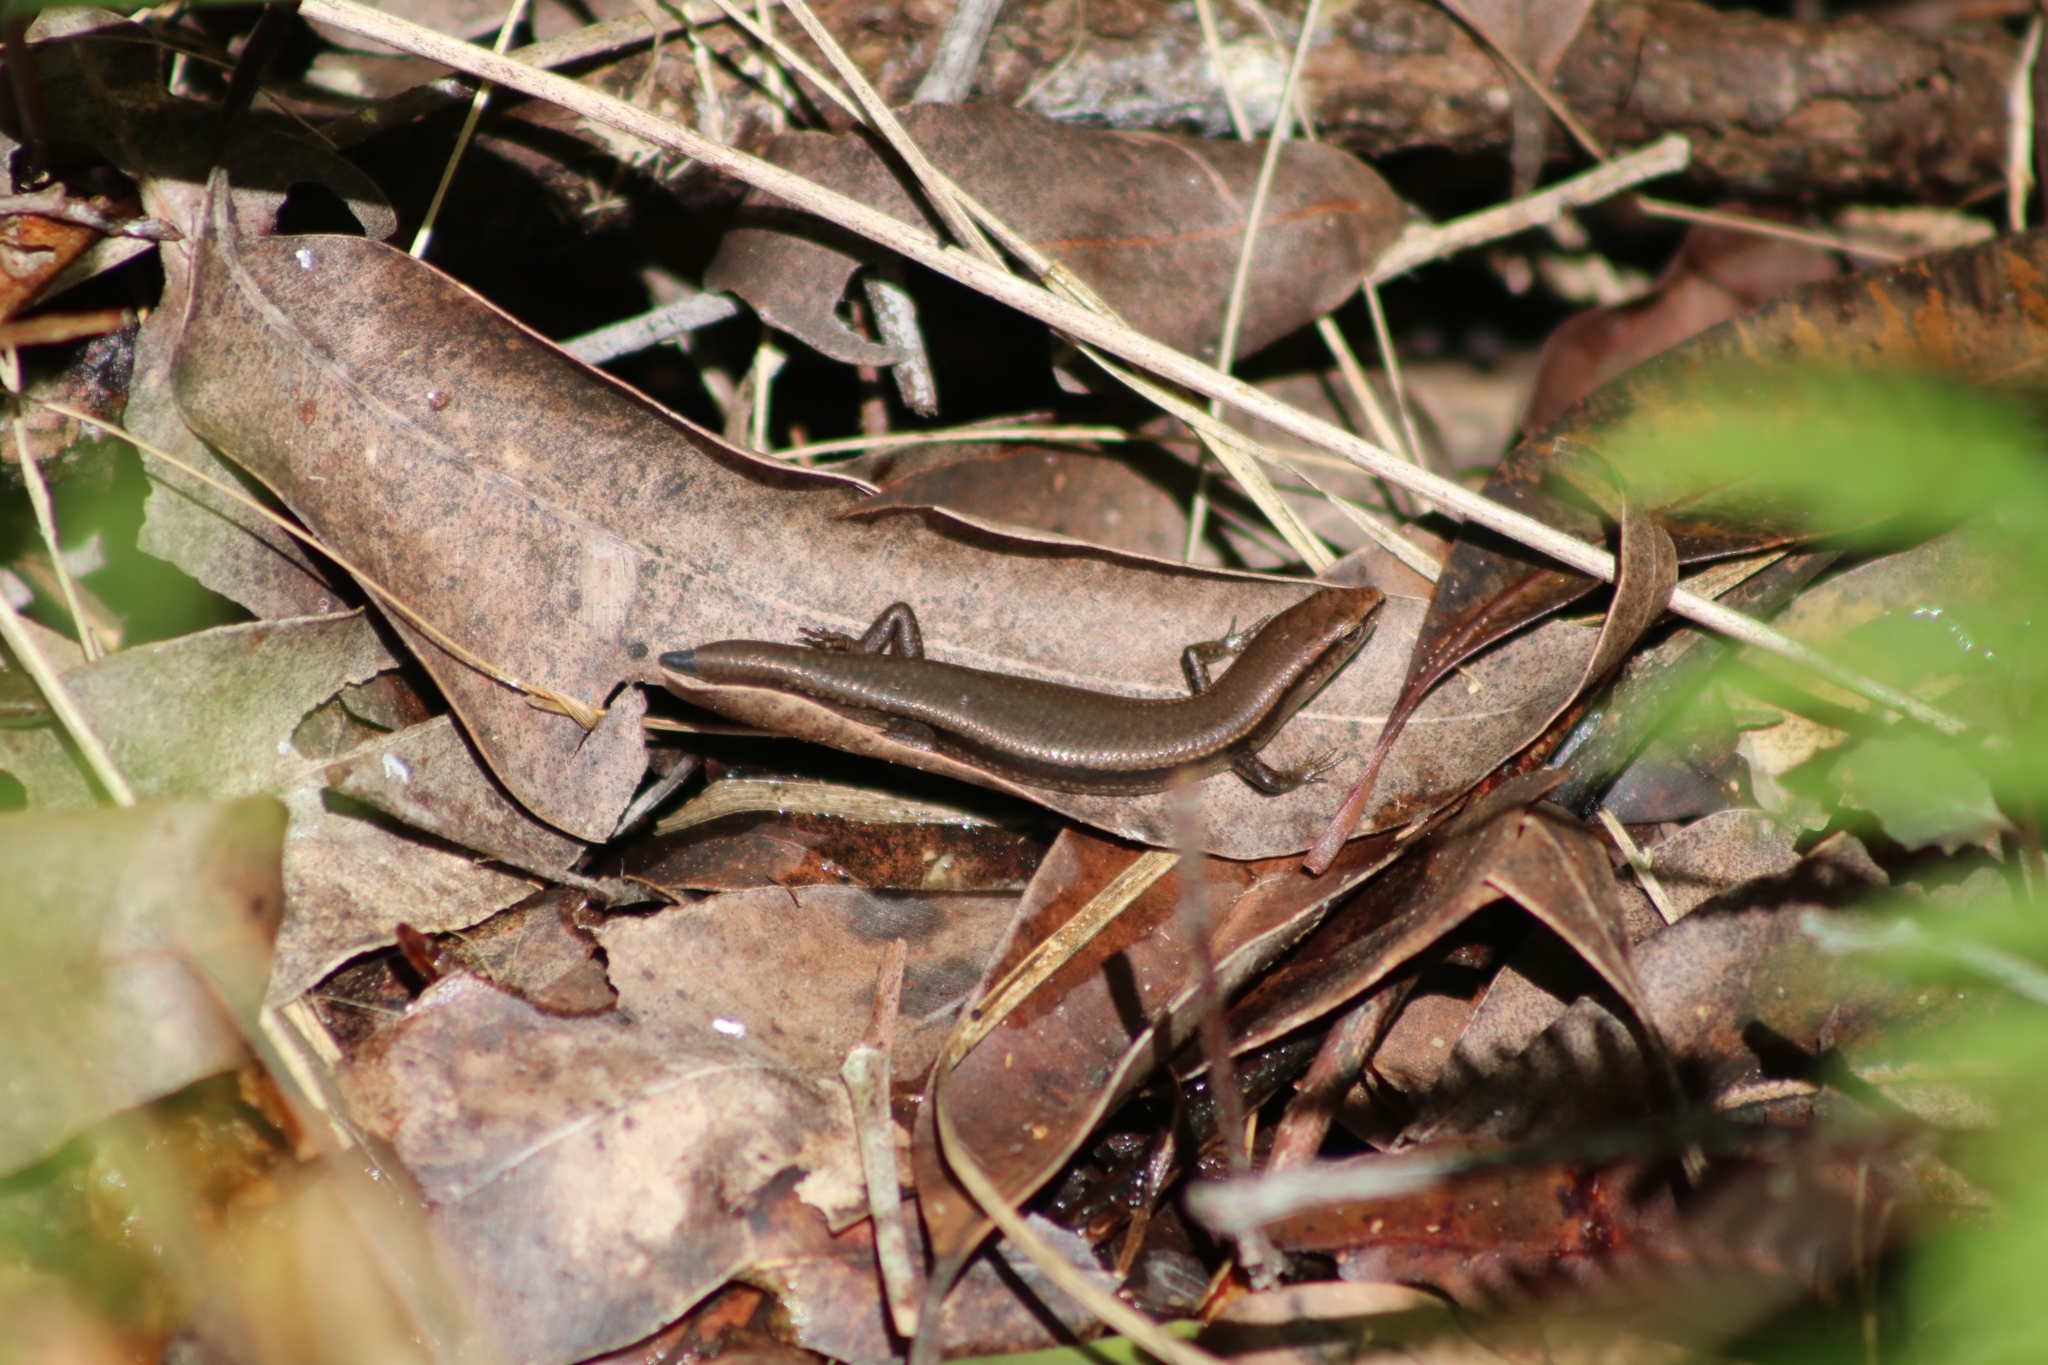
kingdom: Animalia
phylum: Chordata
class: Squamata
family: Scincidae
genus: Lampropholis
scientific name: Lampropholis delicata
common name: Plague skink
